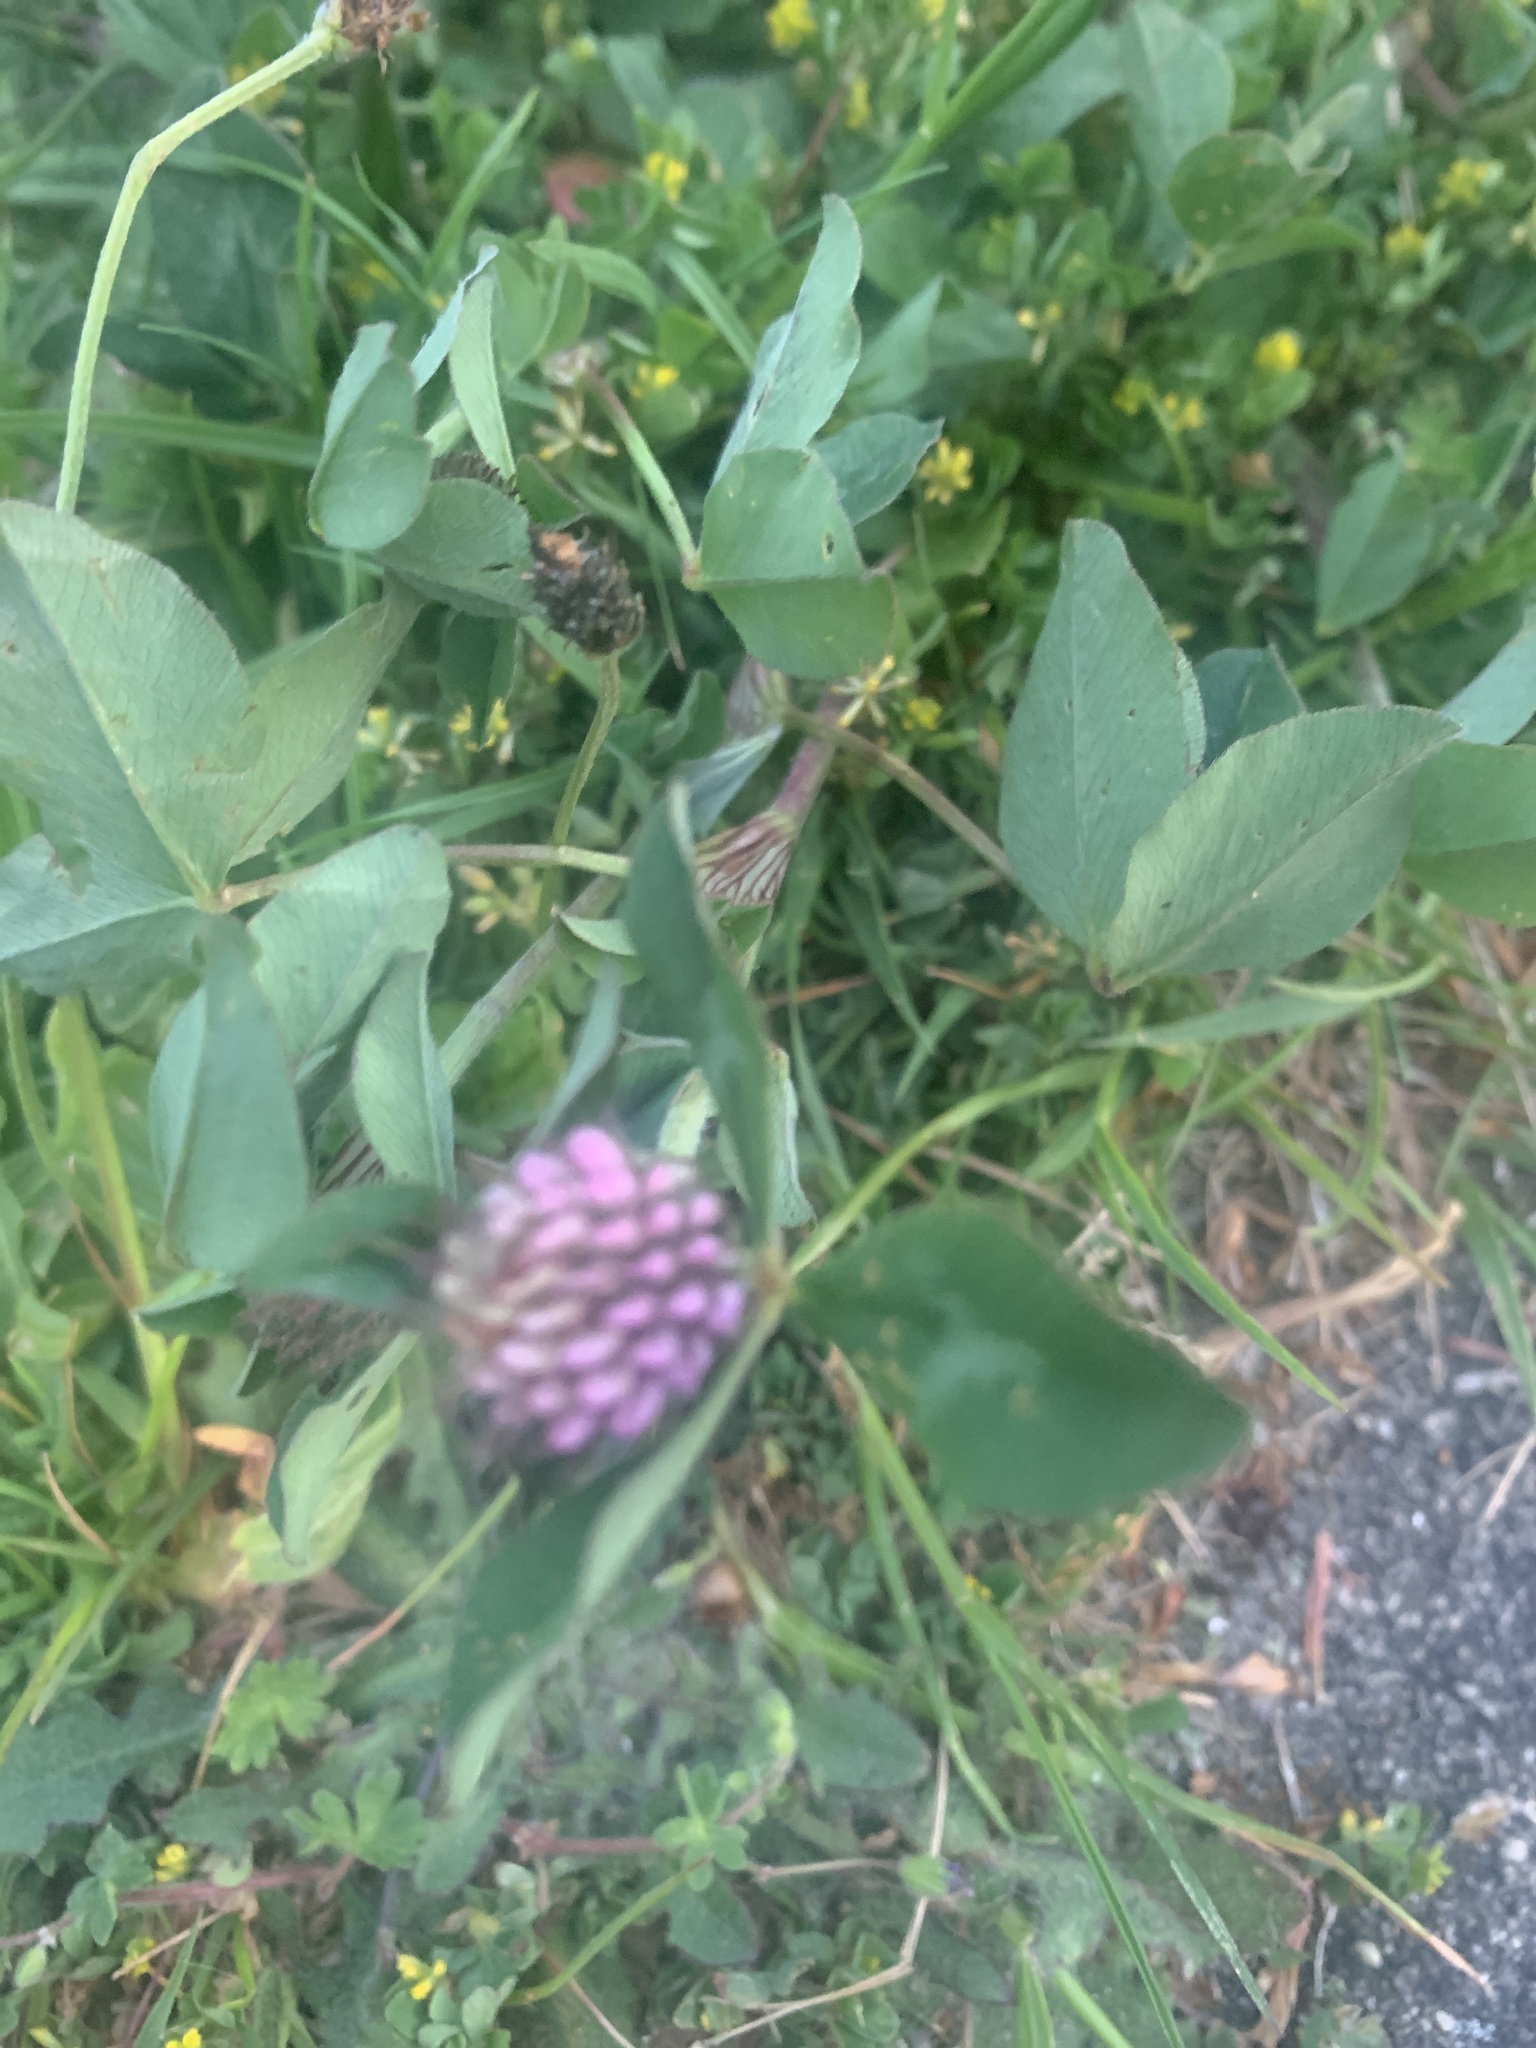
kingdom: Plantae
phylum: Tracheophyta
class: Magnoliopsida
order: Fabales
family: Fabaceae
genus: Trifolium
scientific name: Trifolium pratense
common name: Red clover
